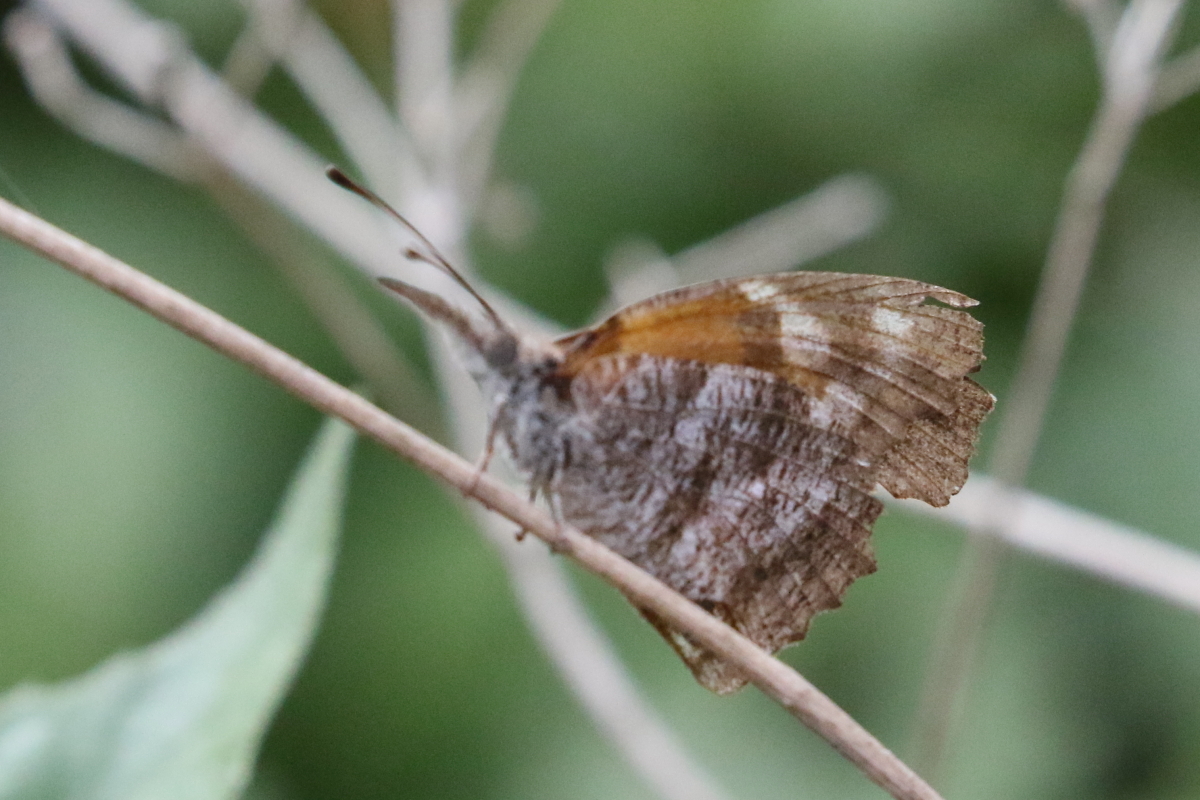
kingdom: Animalia
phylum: Arthropoda
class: Insecta
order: Lepidoptera
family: Nymphalidae
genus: Libytheana
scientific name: Libytheana carinenta
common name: American snout
